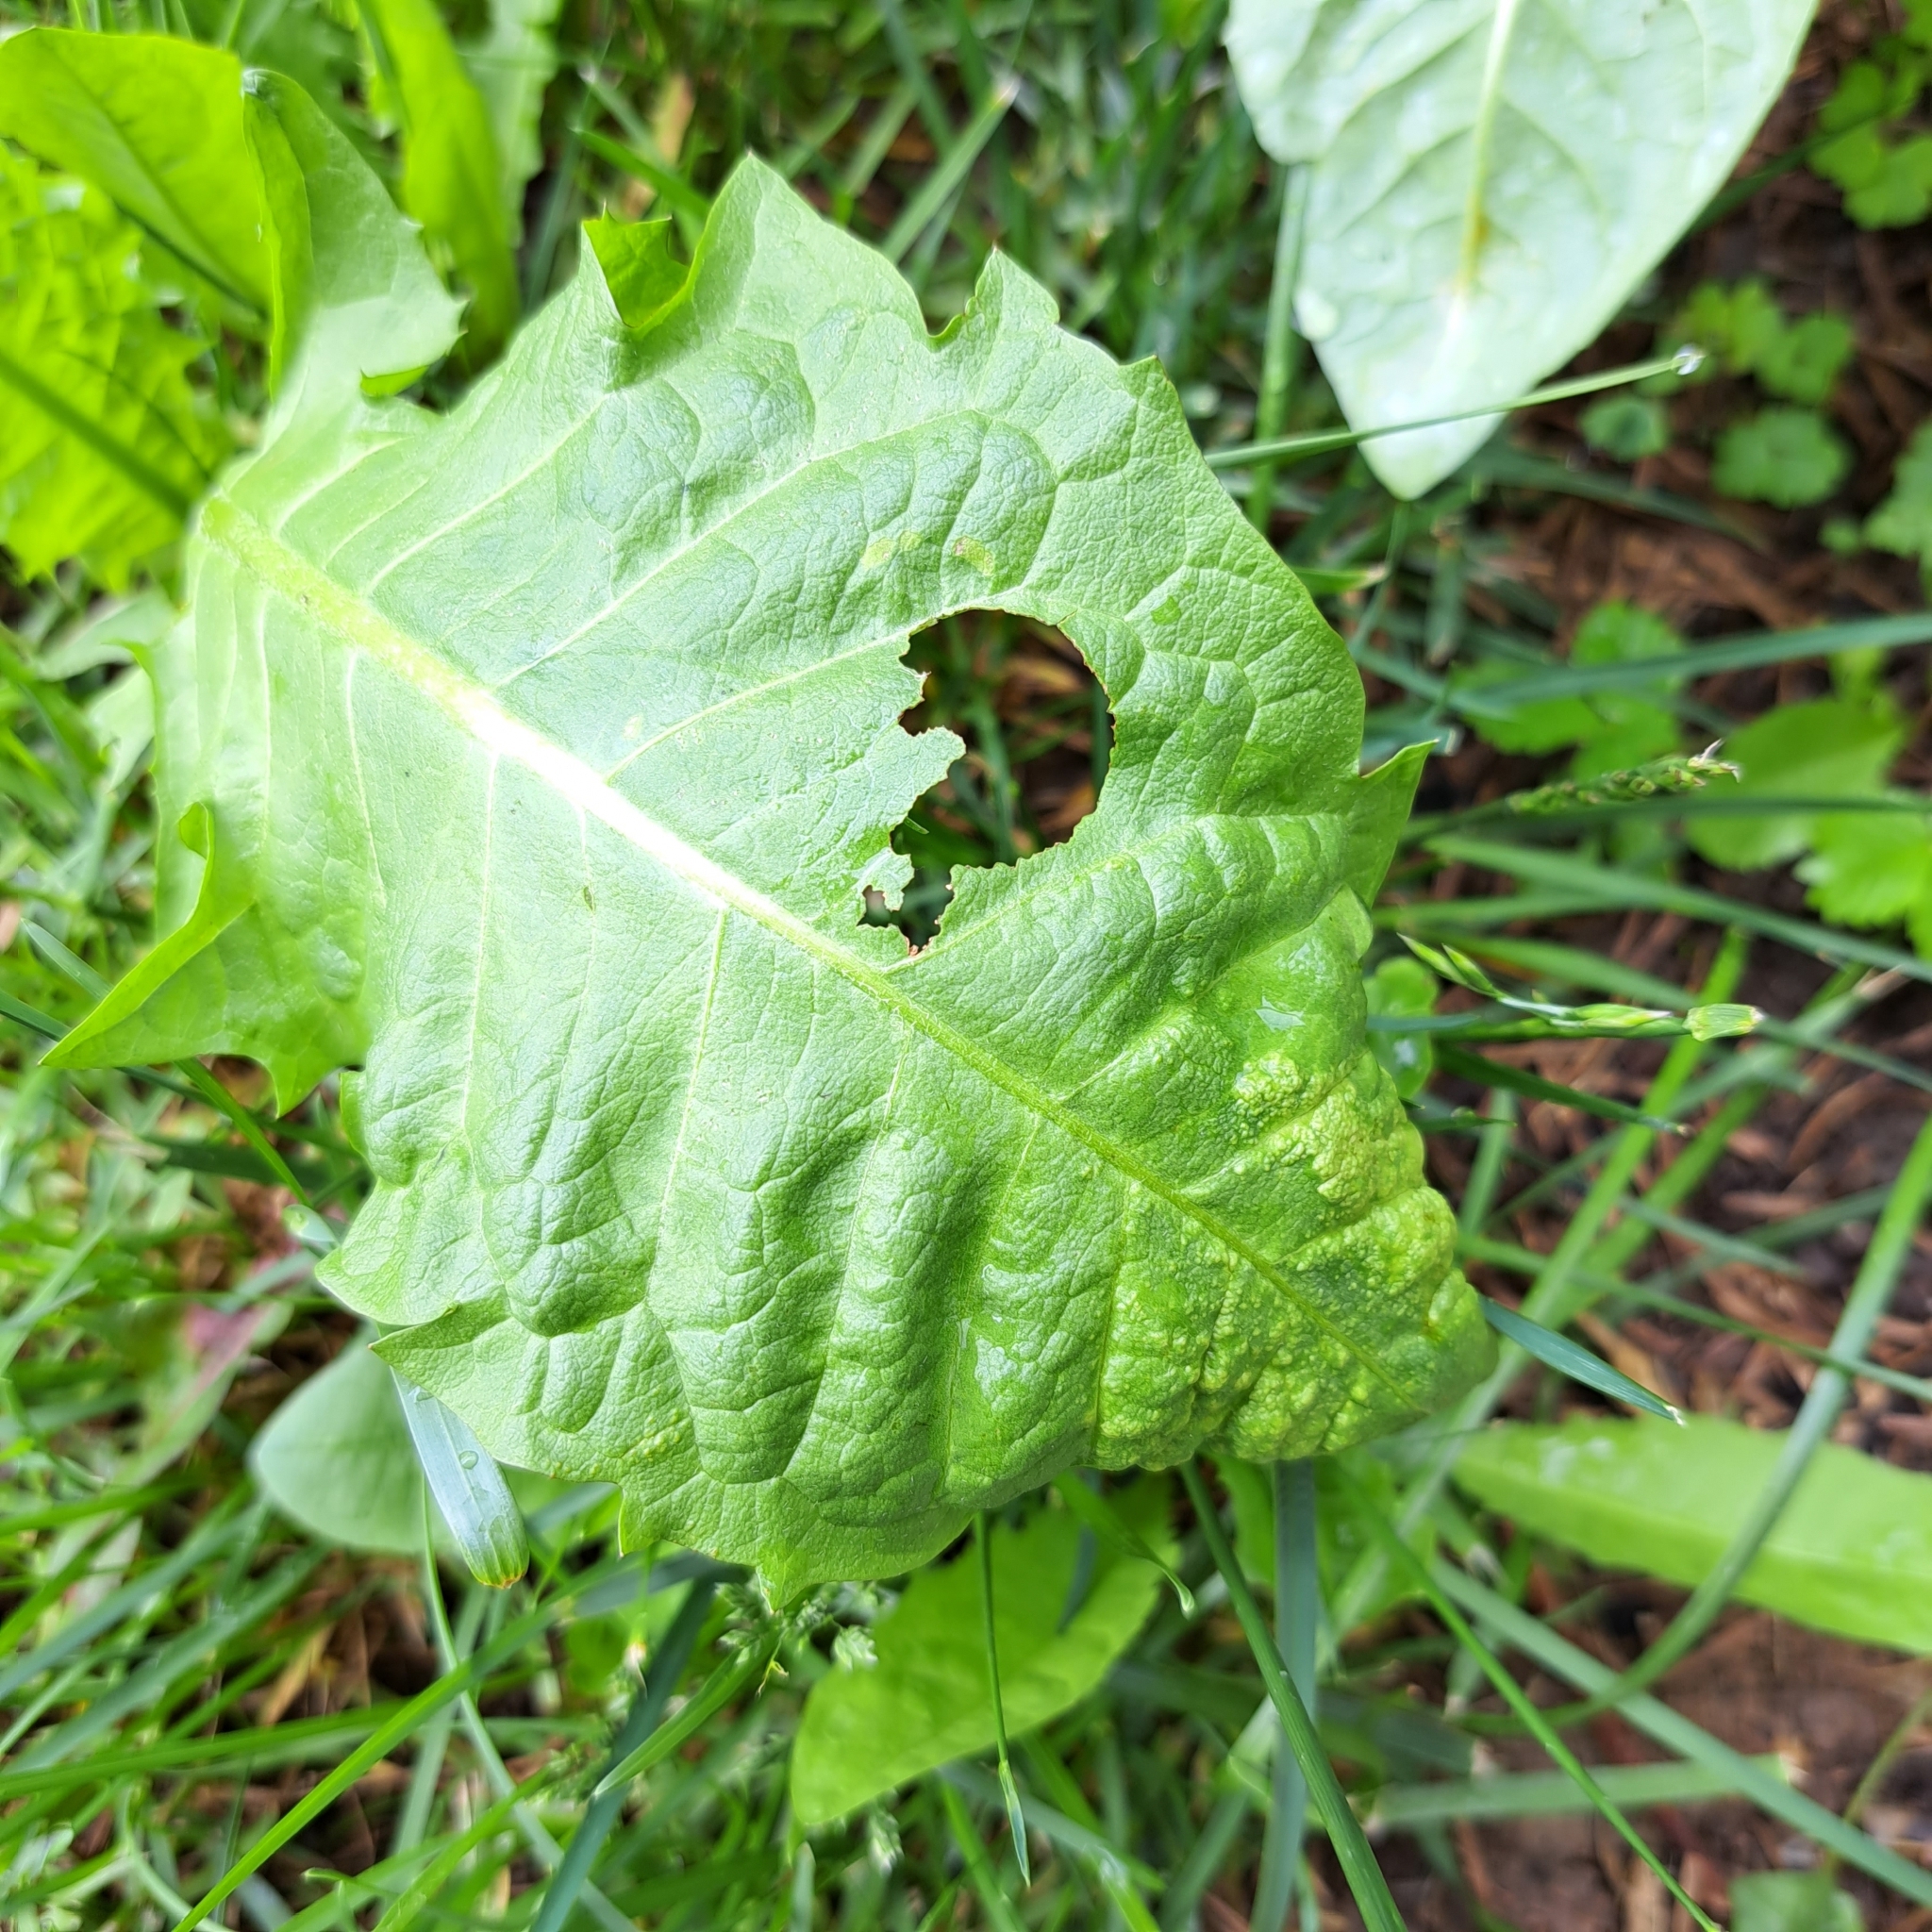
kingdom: Fungi
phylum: Chytridiomycota
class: Chytridiomycetes
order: Chytridiales
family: Synchytriaceae
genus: Synchytrium
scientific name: Synchytrium taraxaci
